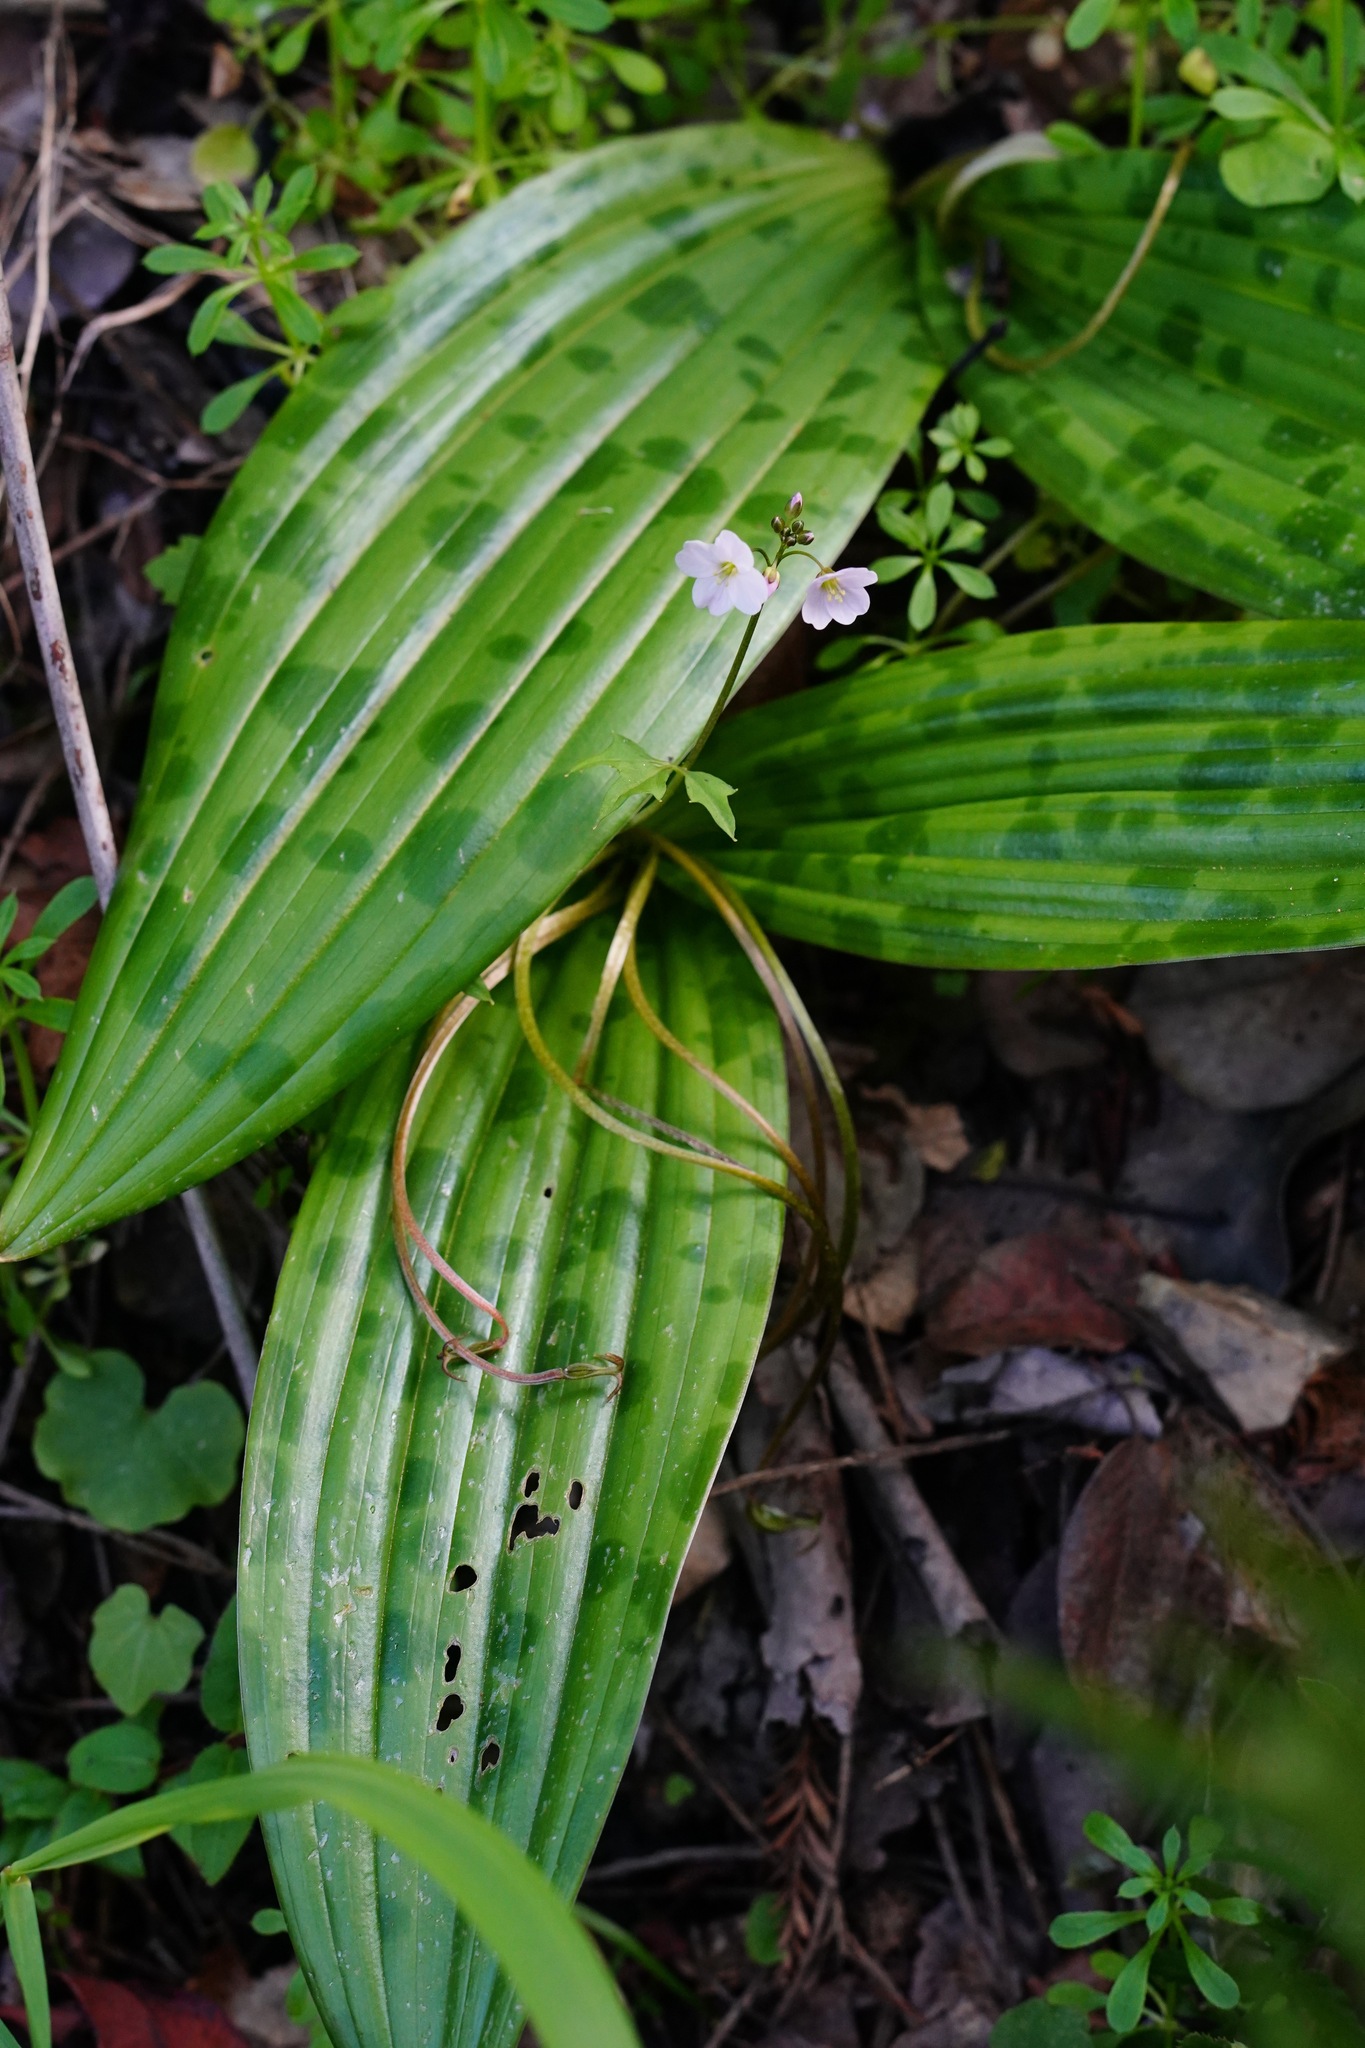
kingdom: Plantae
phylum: Tracheophyta
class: Liliopsida
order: Liliales
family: Liliaceae
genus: Scoliopus
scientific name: Scoliopus bigelovii
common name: Foetid adder's-tongue
